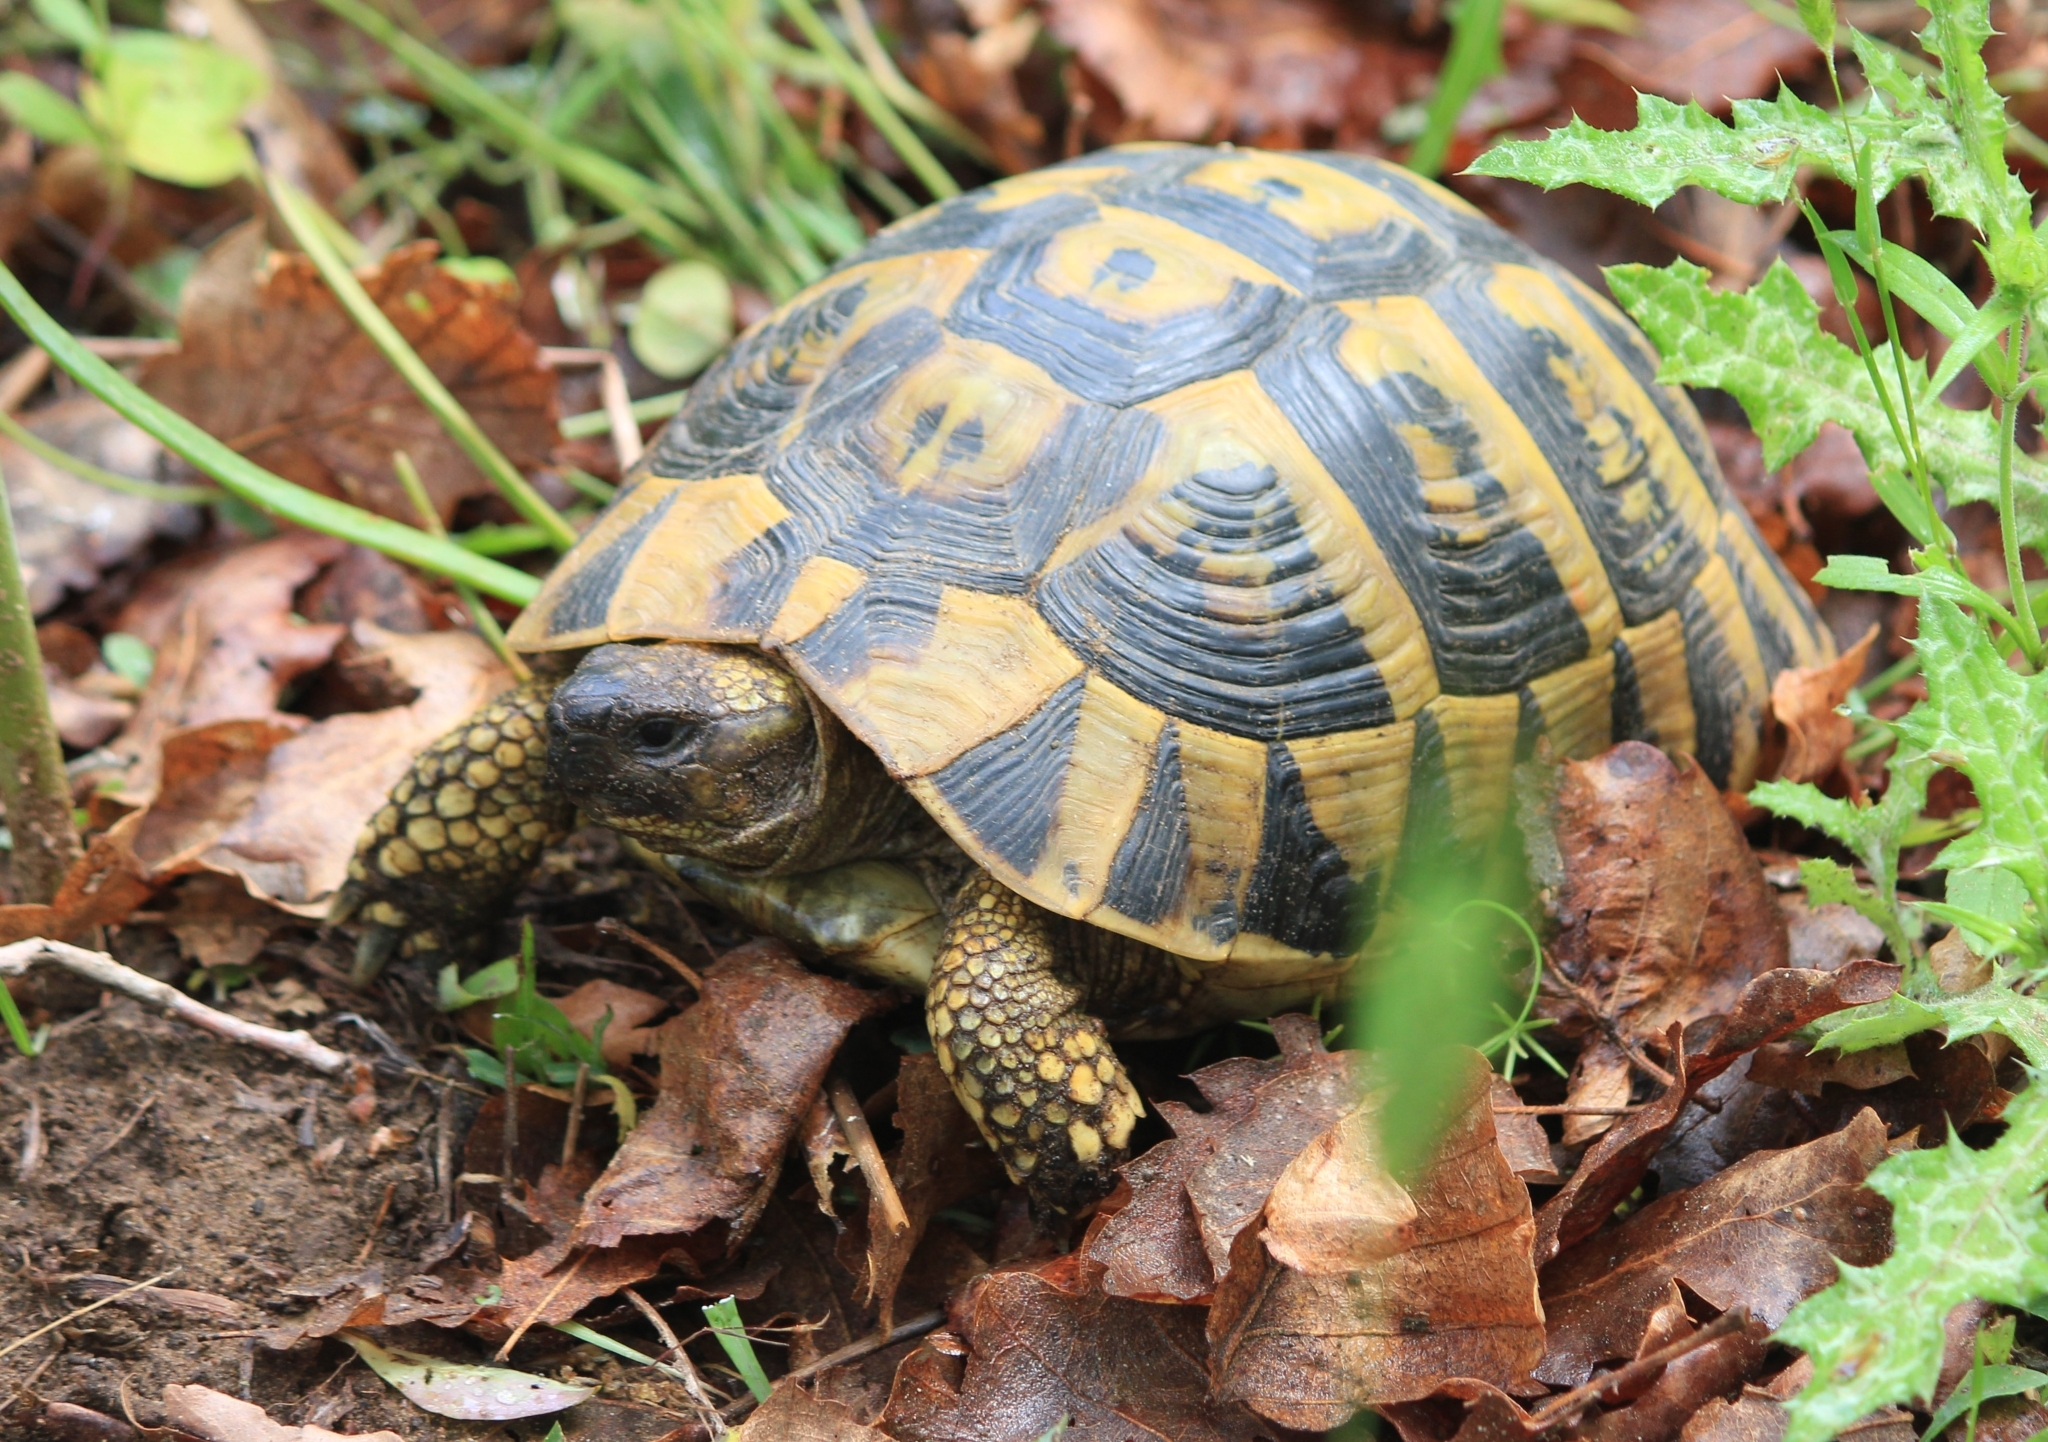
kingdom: Animalia
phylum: Chordata
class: Testudines
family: Testudinidae
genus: Testudo
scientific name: Testudo hermanni
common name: Hermann's tortoise
